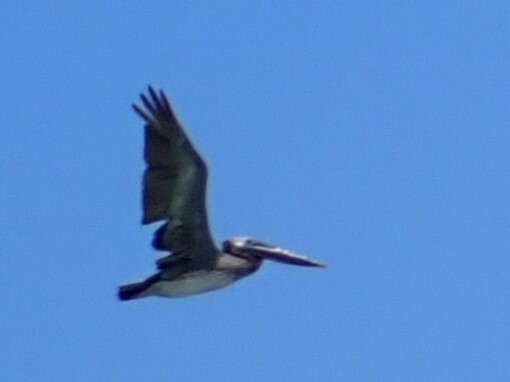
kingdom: Animalia
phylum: Chordata
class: Aves
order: Pelecaniformes
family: Pelecanidae
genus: Pelecanus
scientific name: Pelecanus occidentalis
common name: Brown pelican
